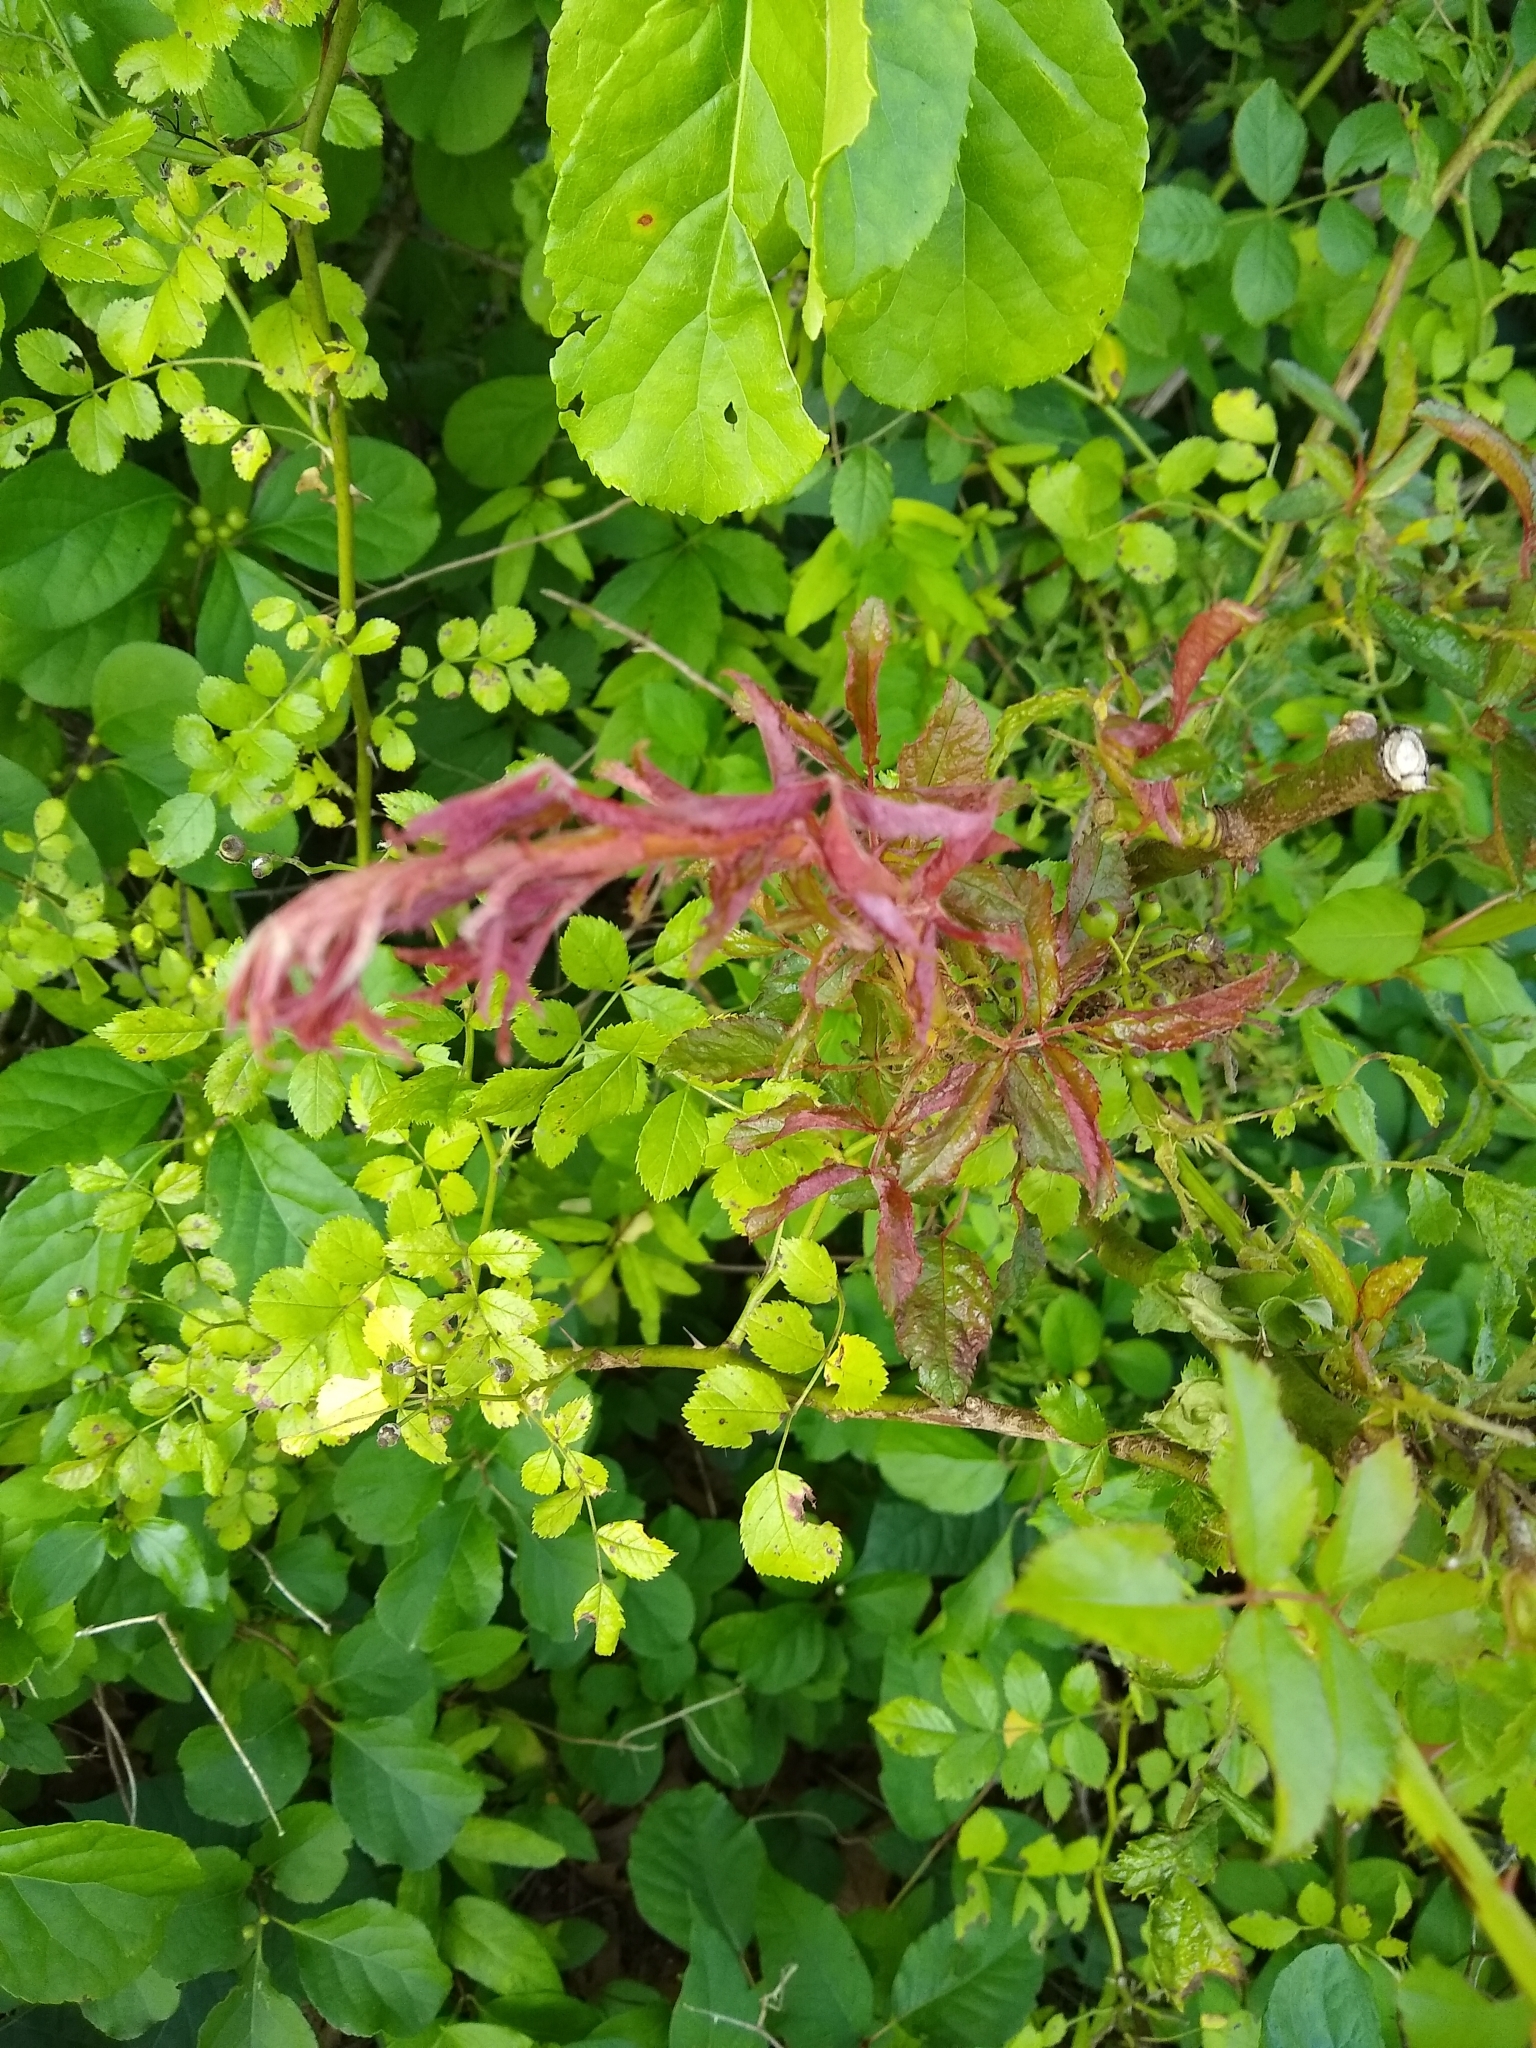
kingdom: Viruses
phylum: Negarnaviricota
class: Ellioviricetes
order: Bunyavirales
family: Fimoviridae
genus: Emaravirus
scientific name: Emaravirus rosae
